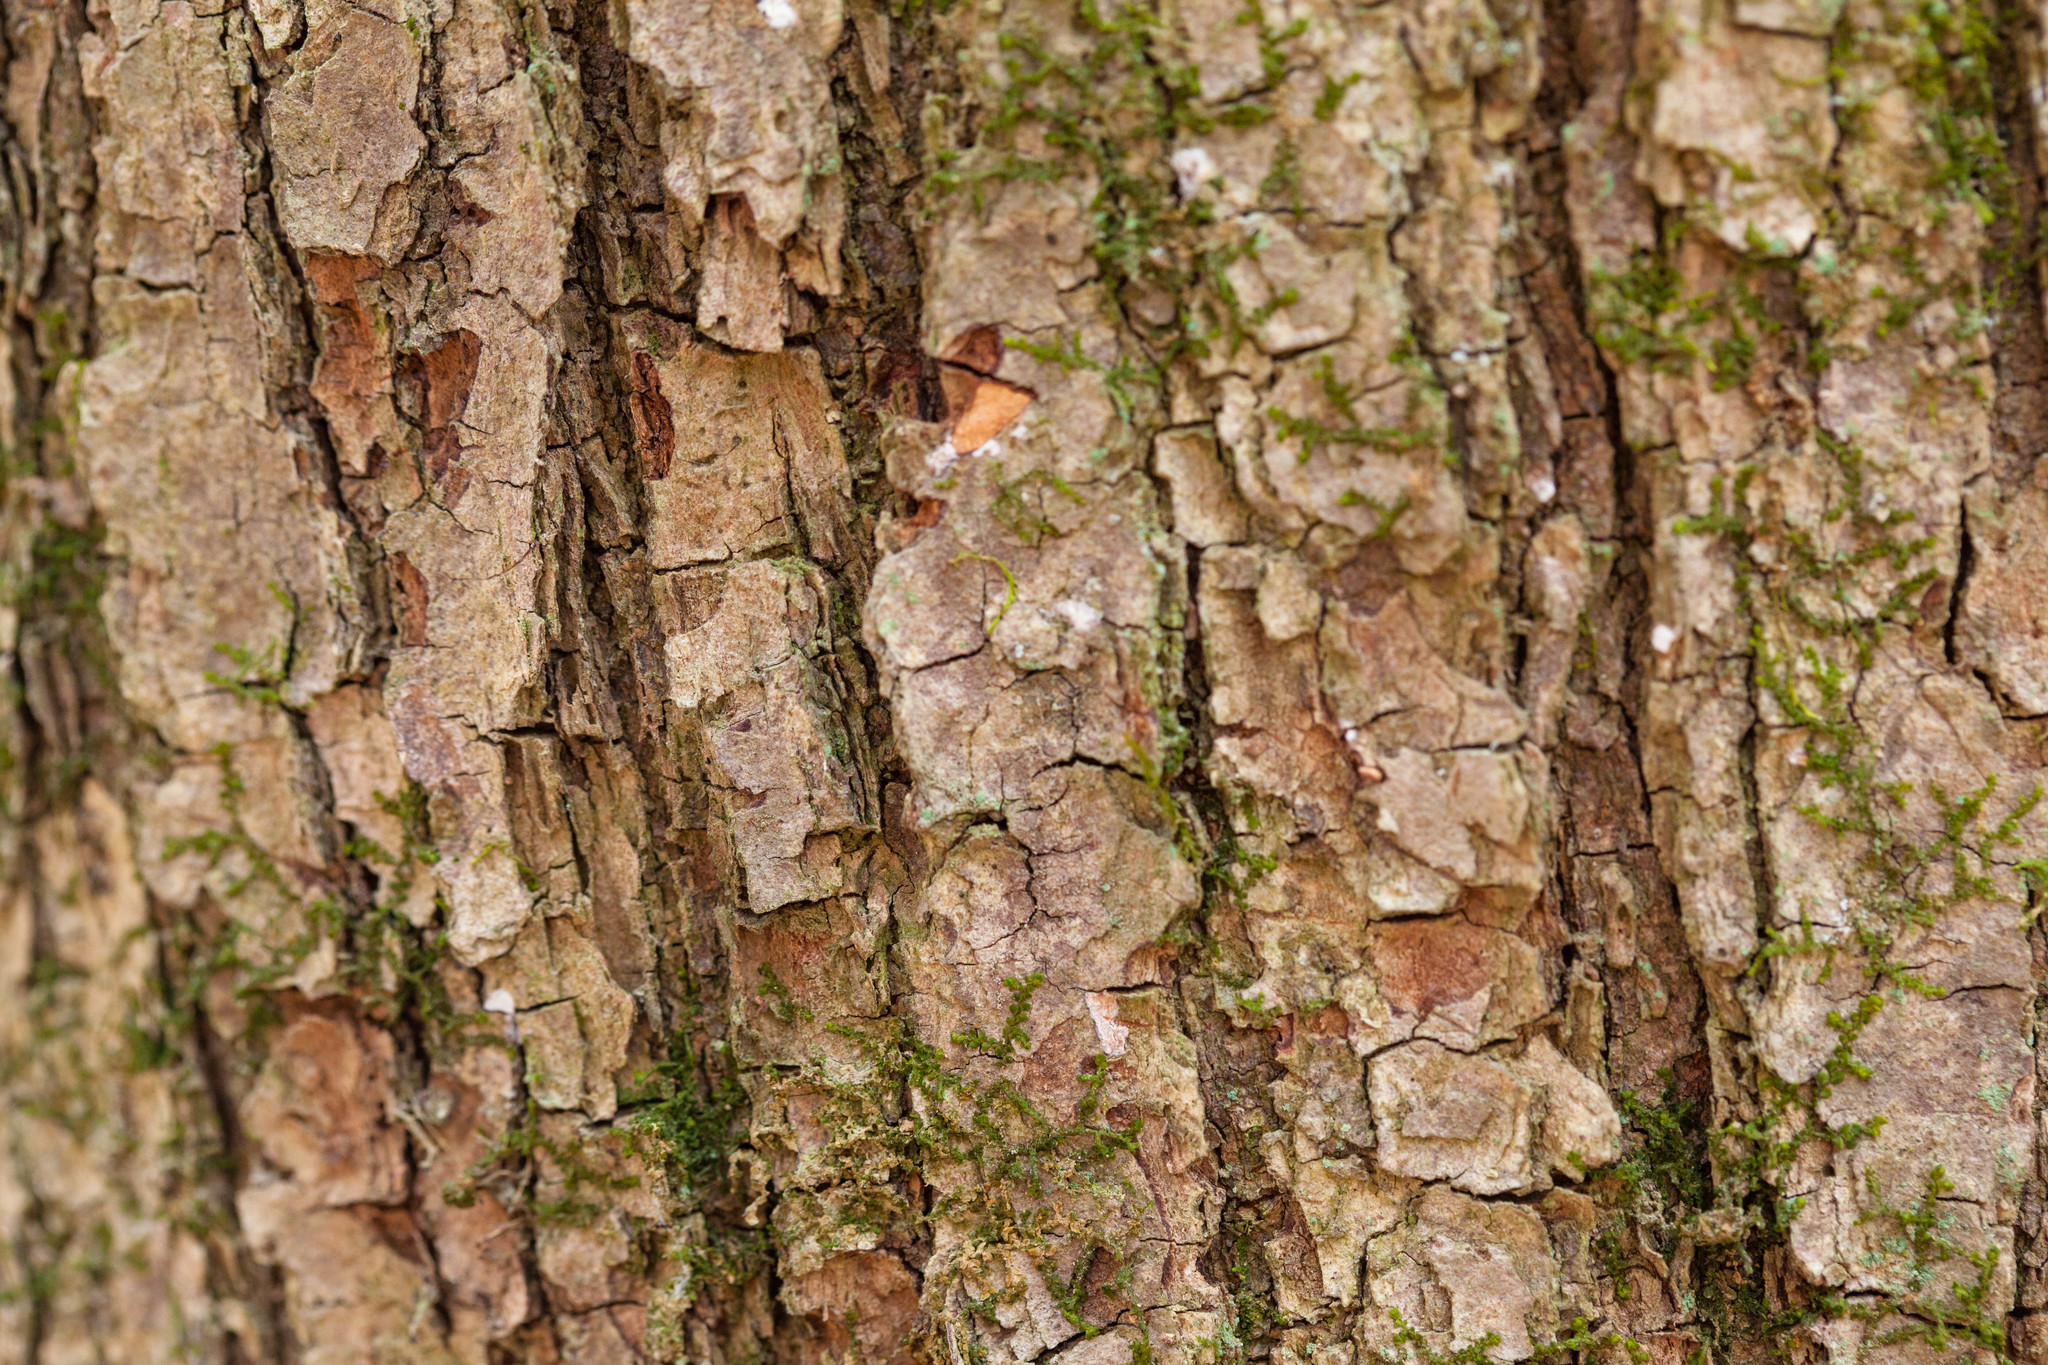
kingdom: Plantae
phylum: Tracheophyta
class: Magnoliopsida
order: Sapindales
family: Sapindaceae
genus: Acer
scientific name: Acer rubrum
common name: Red maple
